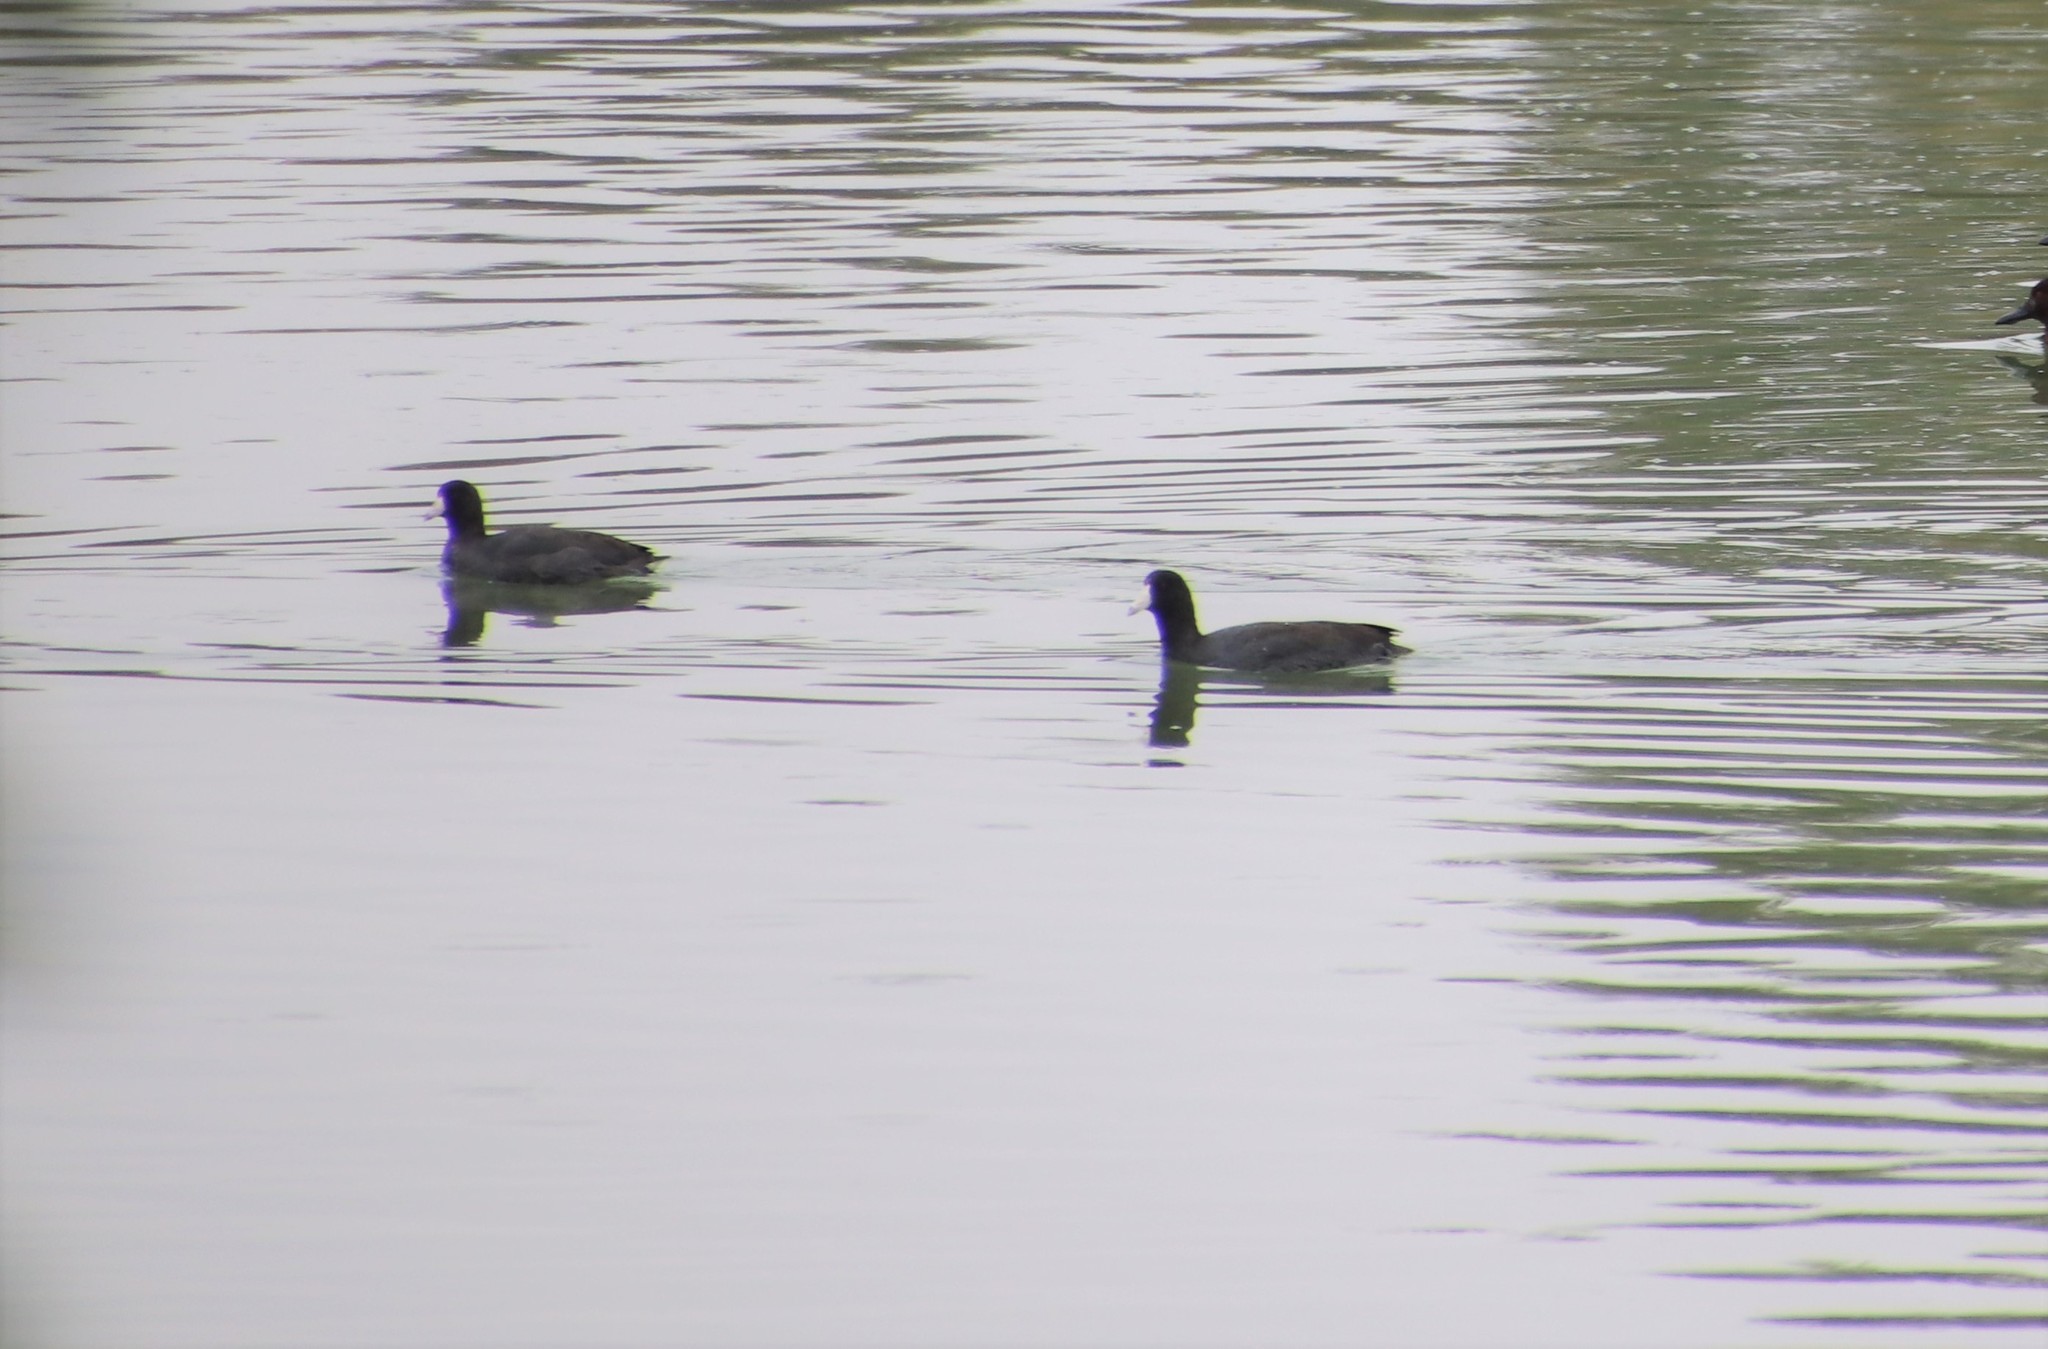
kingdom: Animalia
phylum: Chordata
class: Aves
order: Gruiformes
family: Rallidae
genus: Fulica
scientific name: Fulica americana
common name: American coot
